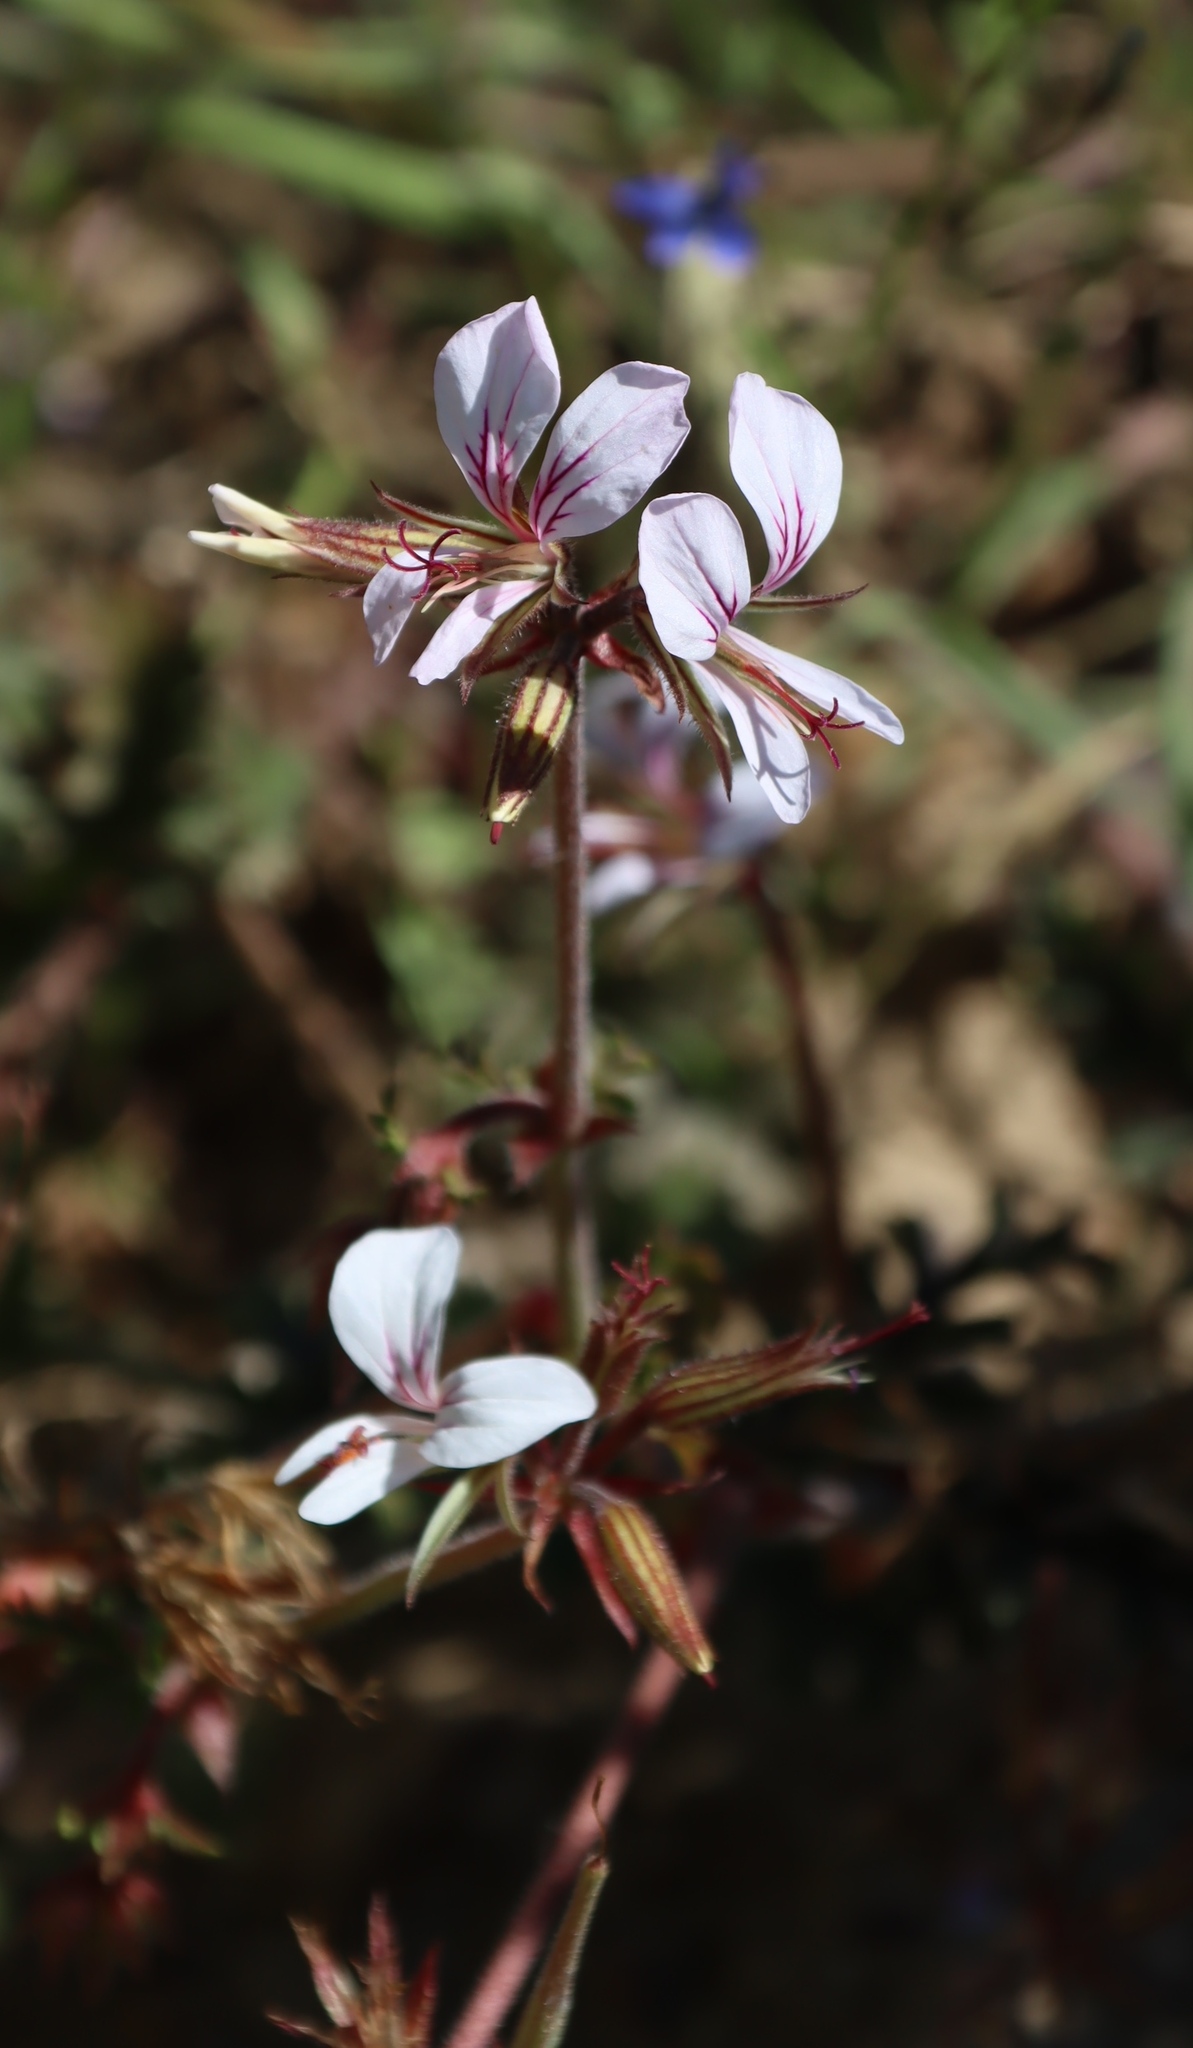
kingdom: Plantae
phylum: Tracheophyta
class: Magnoliopsida
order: Geraniales
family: Geraniaceae
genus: Pelargonium
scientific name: Pelargonium myrrhifolium
